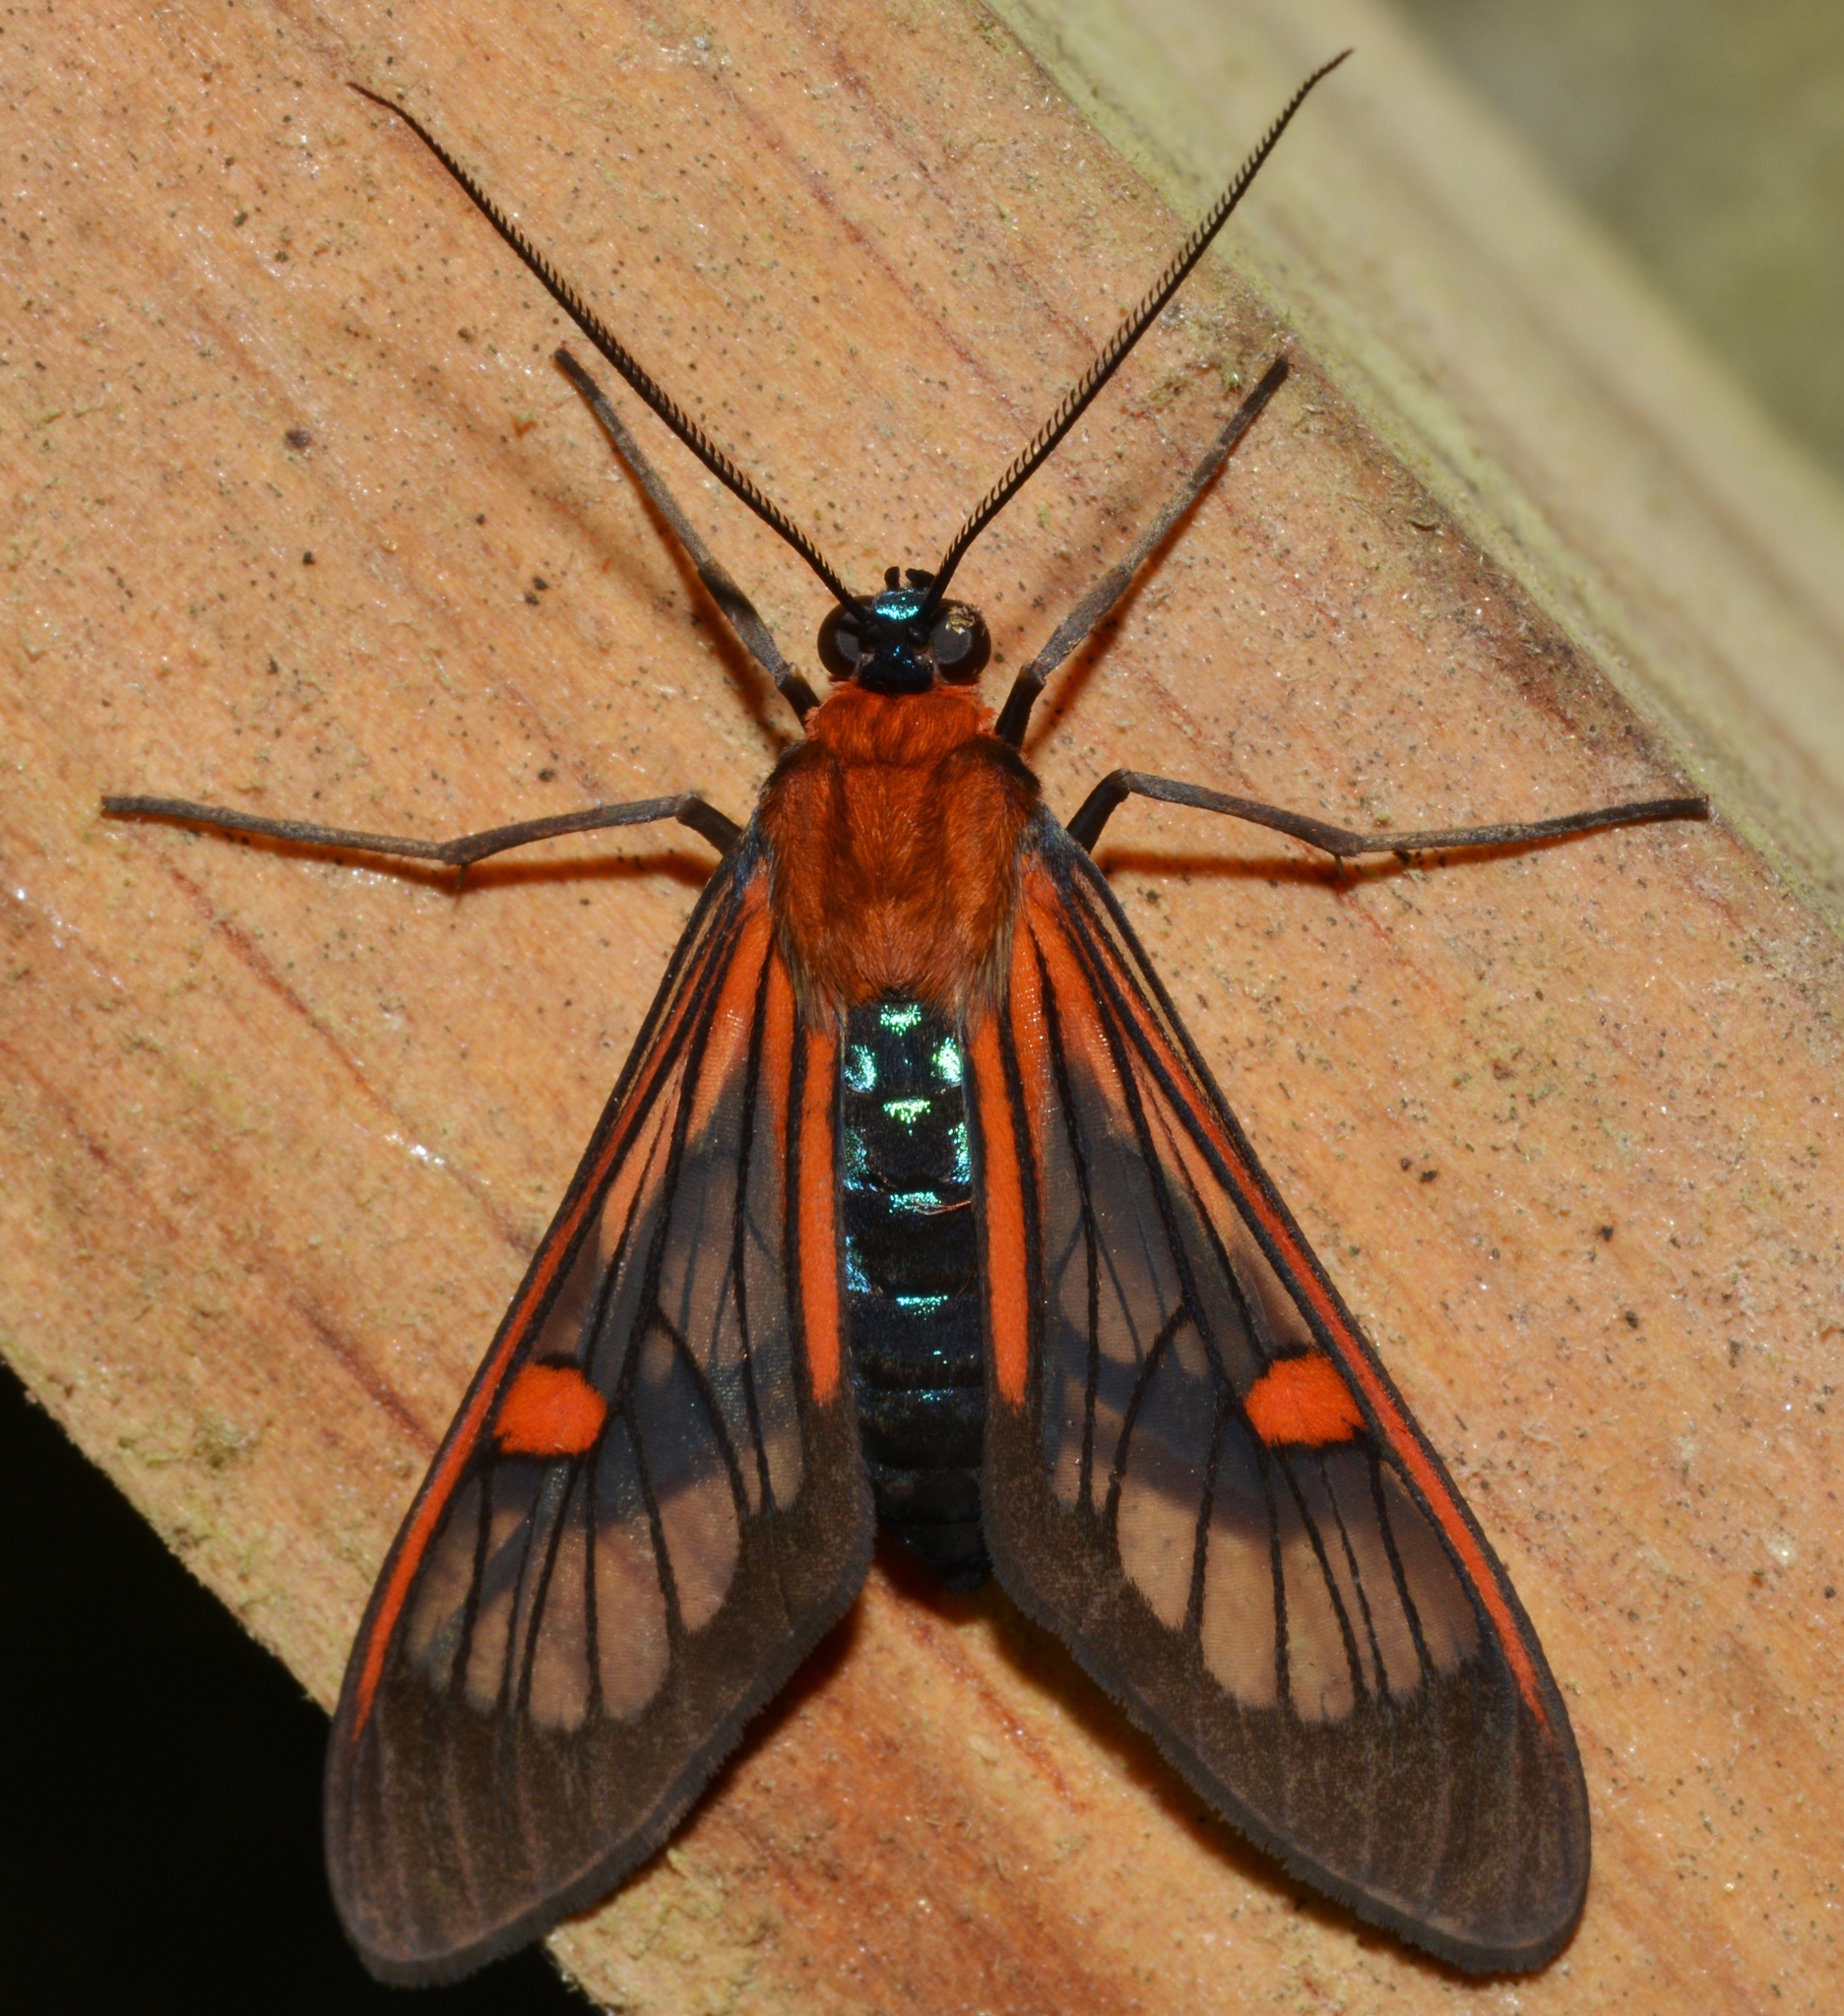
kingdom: Animalia
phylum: Arthropoda
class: Insecta
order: Lepidoptera
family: Erebidae
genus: Lepidoneiva
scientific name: Lepidoneiva teuthras
